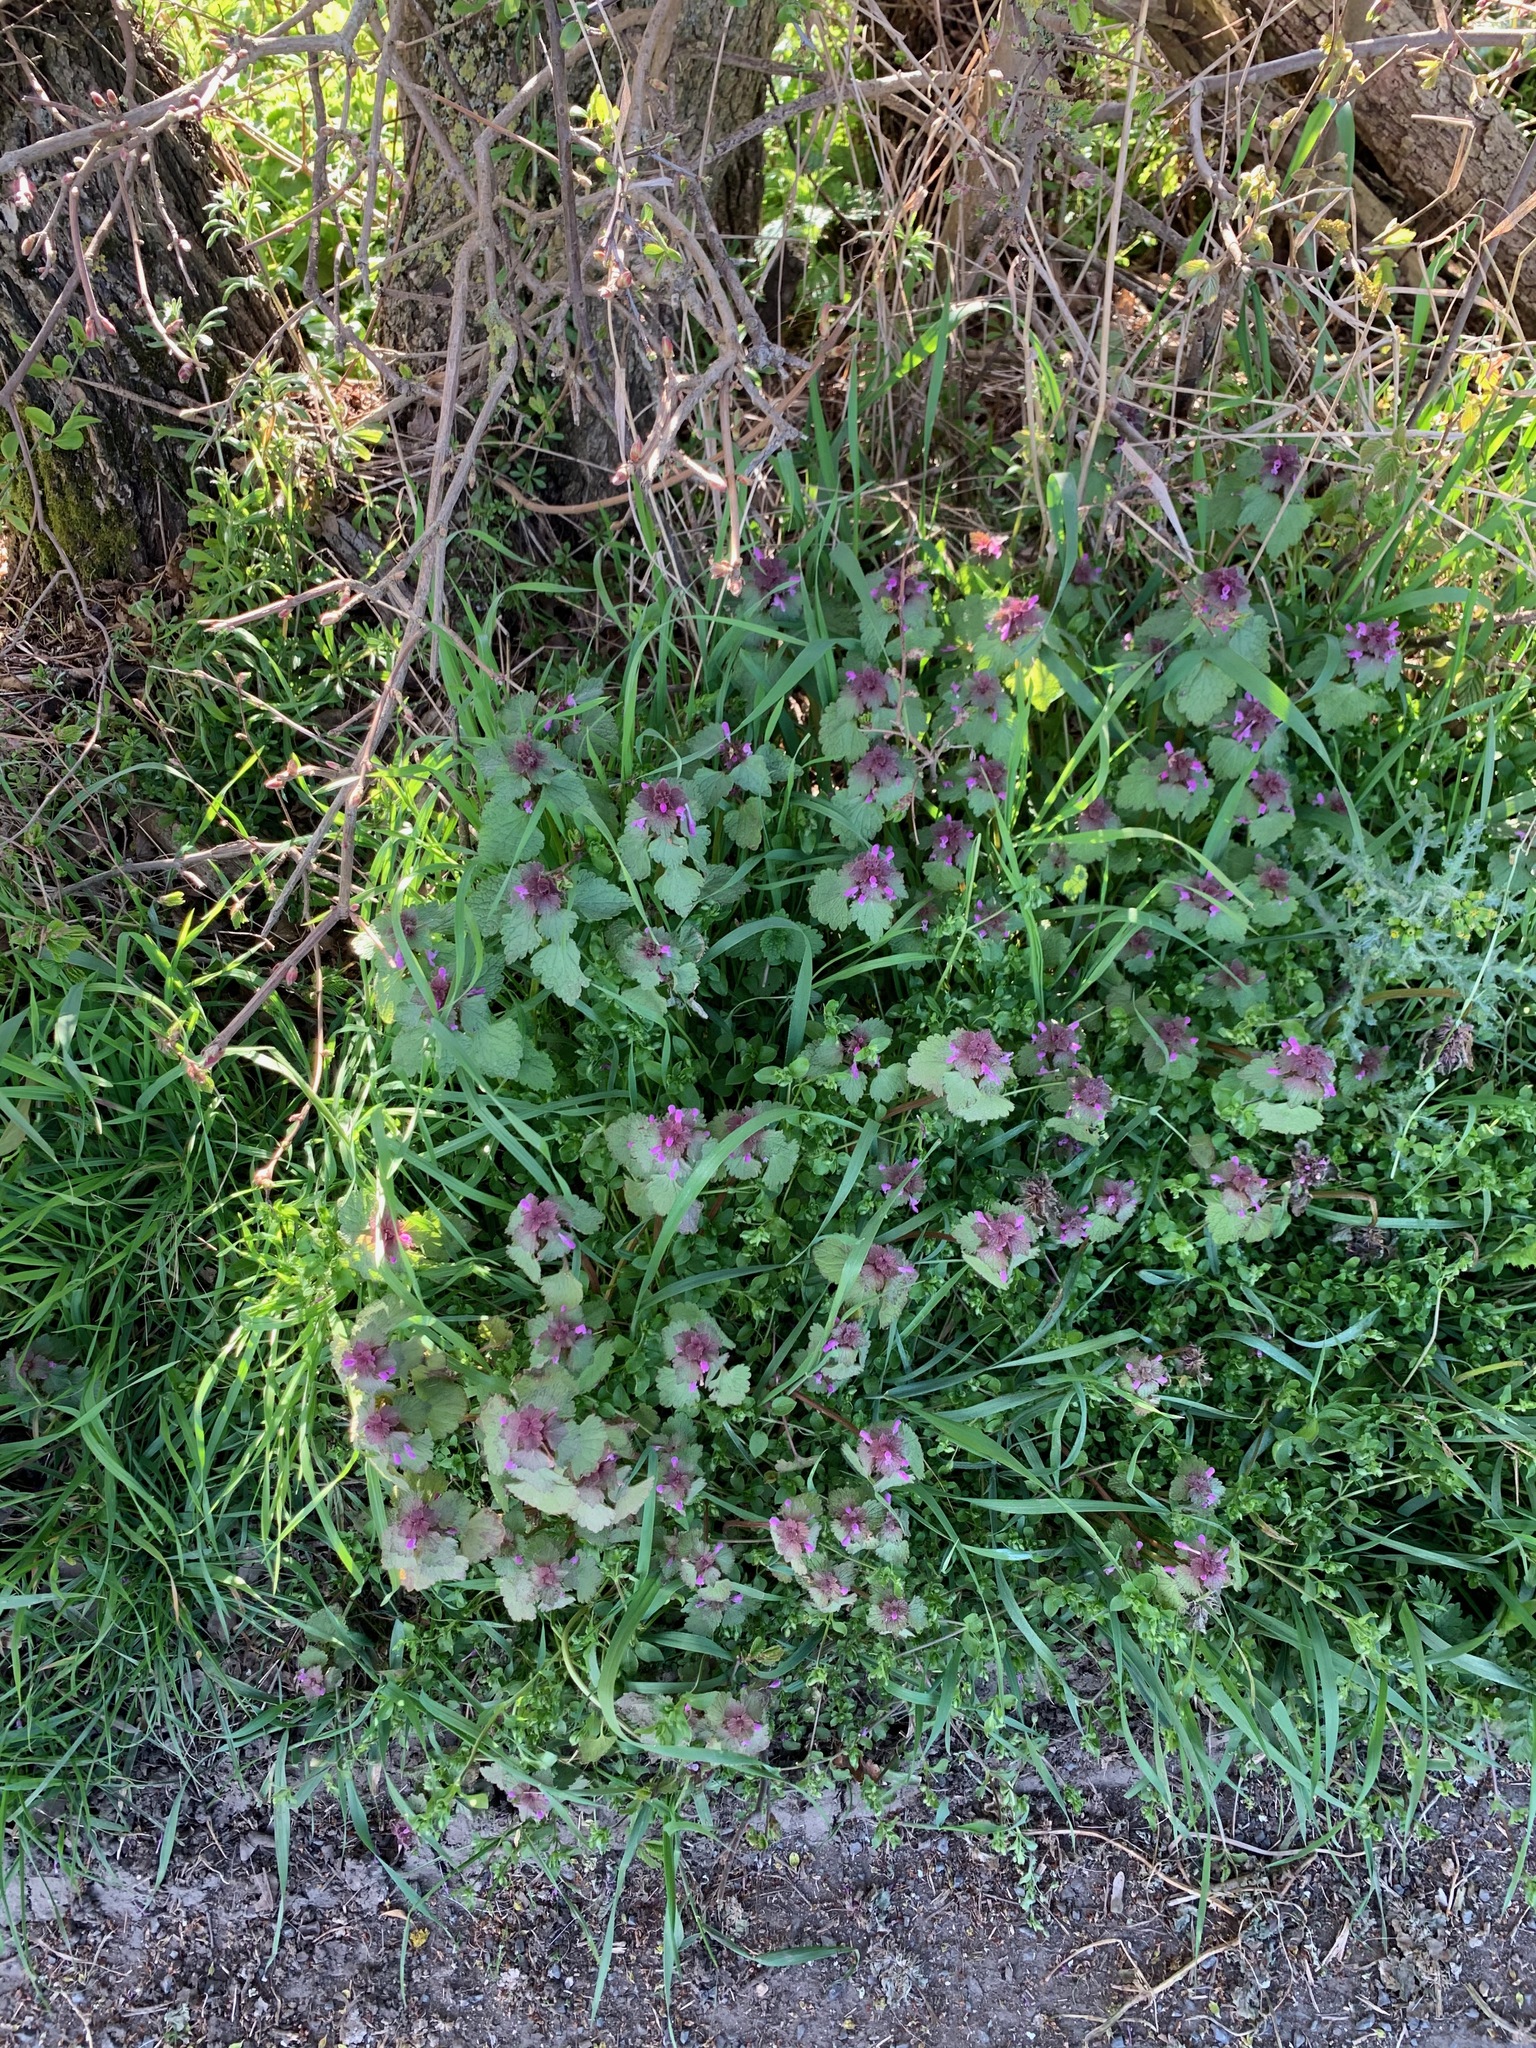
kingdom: Plantae
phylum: Tracheophyta
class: Magnoliopsida
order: Lamiales
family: Lamiaceae
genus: Lamium
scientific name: Lamium purpureum
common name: Red dead-nettle
